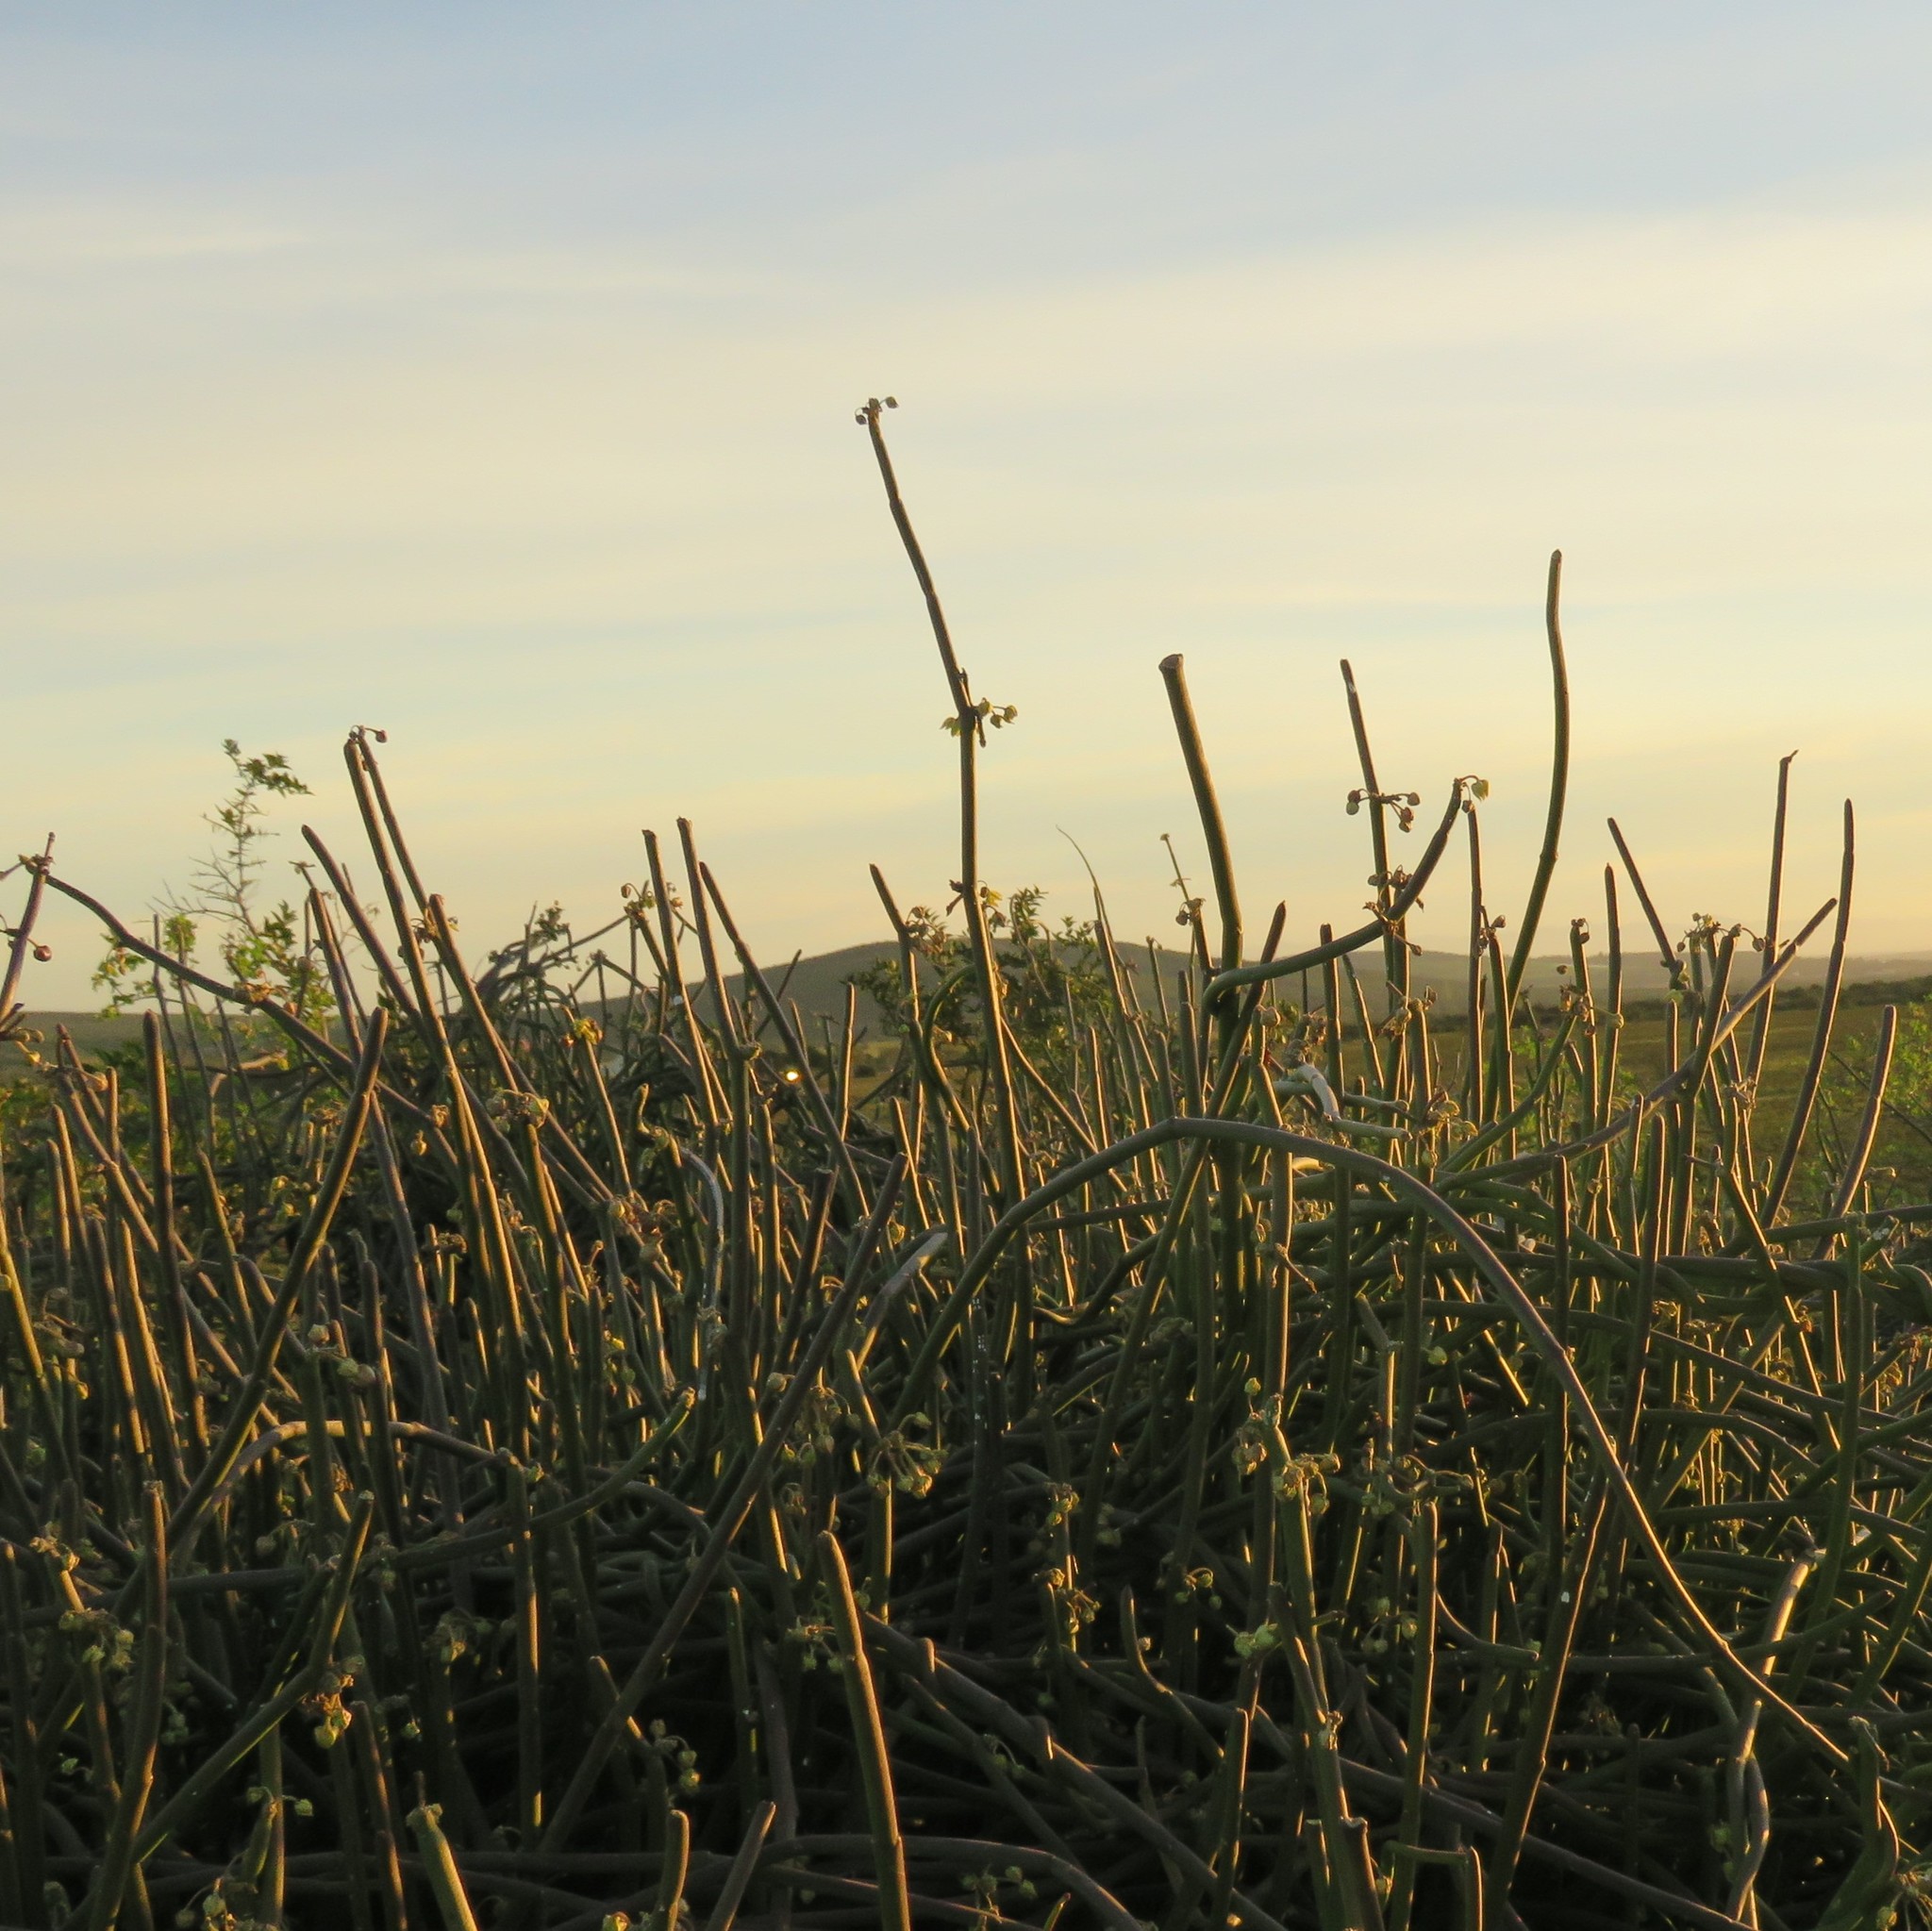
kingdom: Plantae
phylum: Tracheophyta
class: Magnoliopsida
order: Gentianales
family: Apocynaceae
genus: Cynanchum
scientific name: Cynanchum viminale
